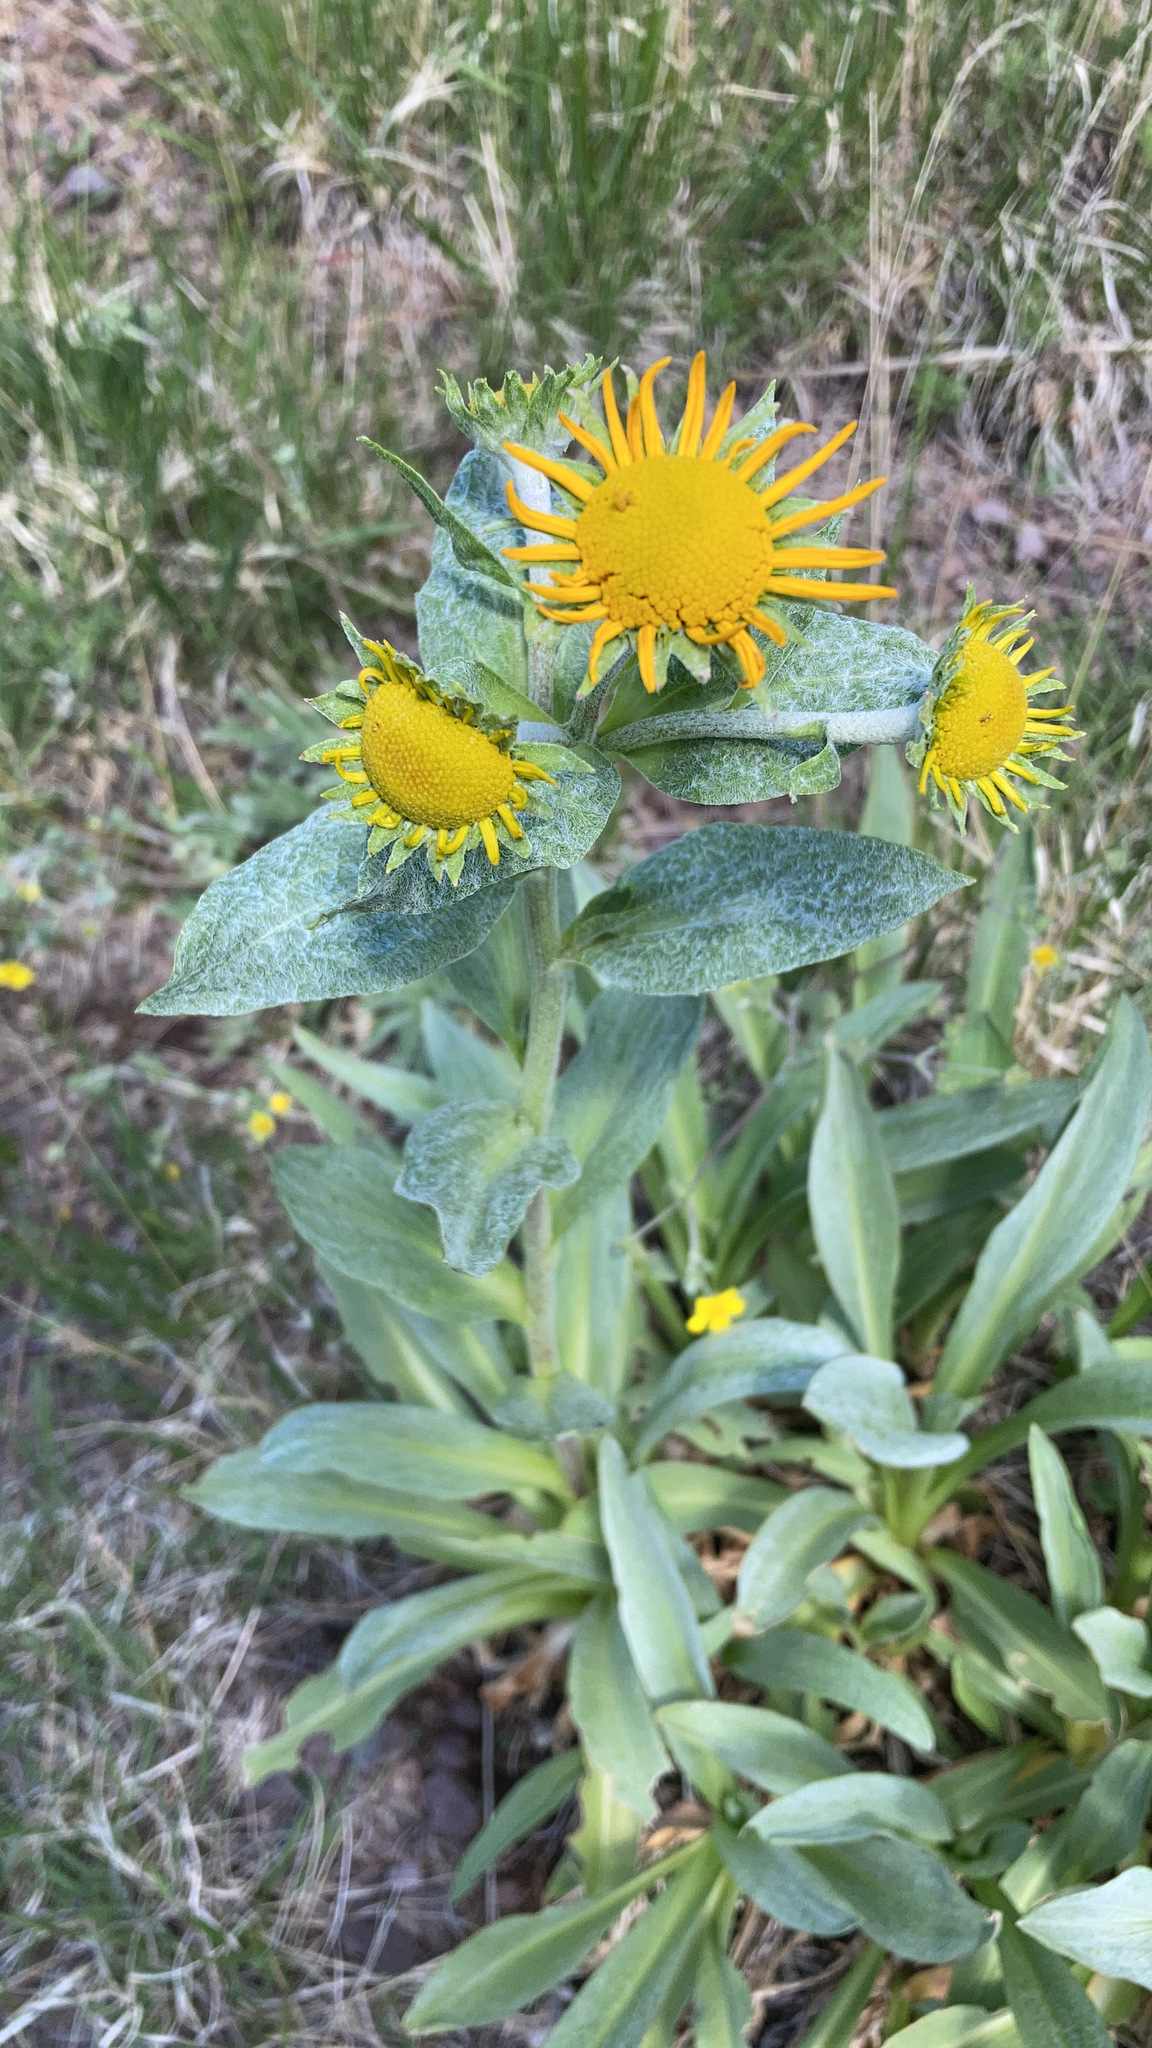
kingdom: Plantae
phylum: Tracheophyta
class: Magnoliopsida
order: Asterales
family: Asteraceae
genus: Hymenoxys
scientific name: Hymenoxys hoopesii
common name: Orange-sneezeweed
